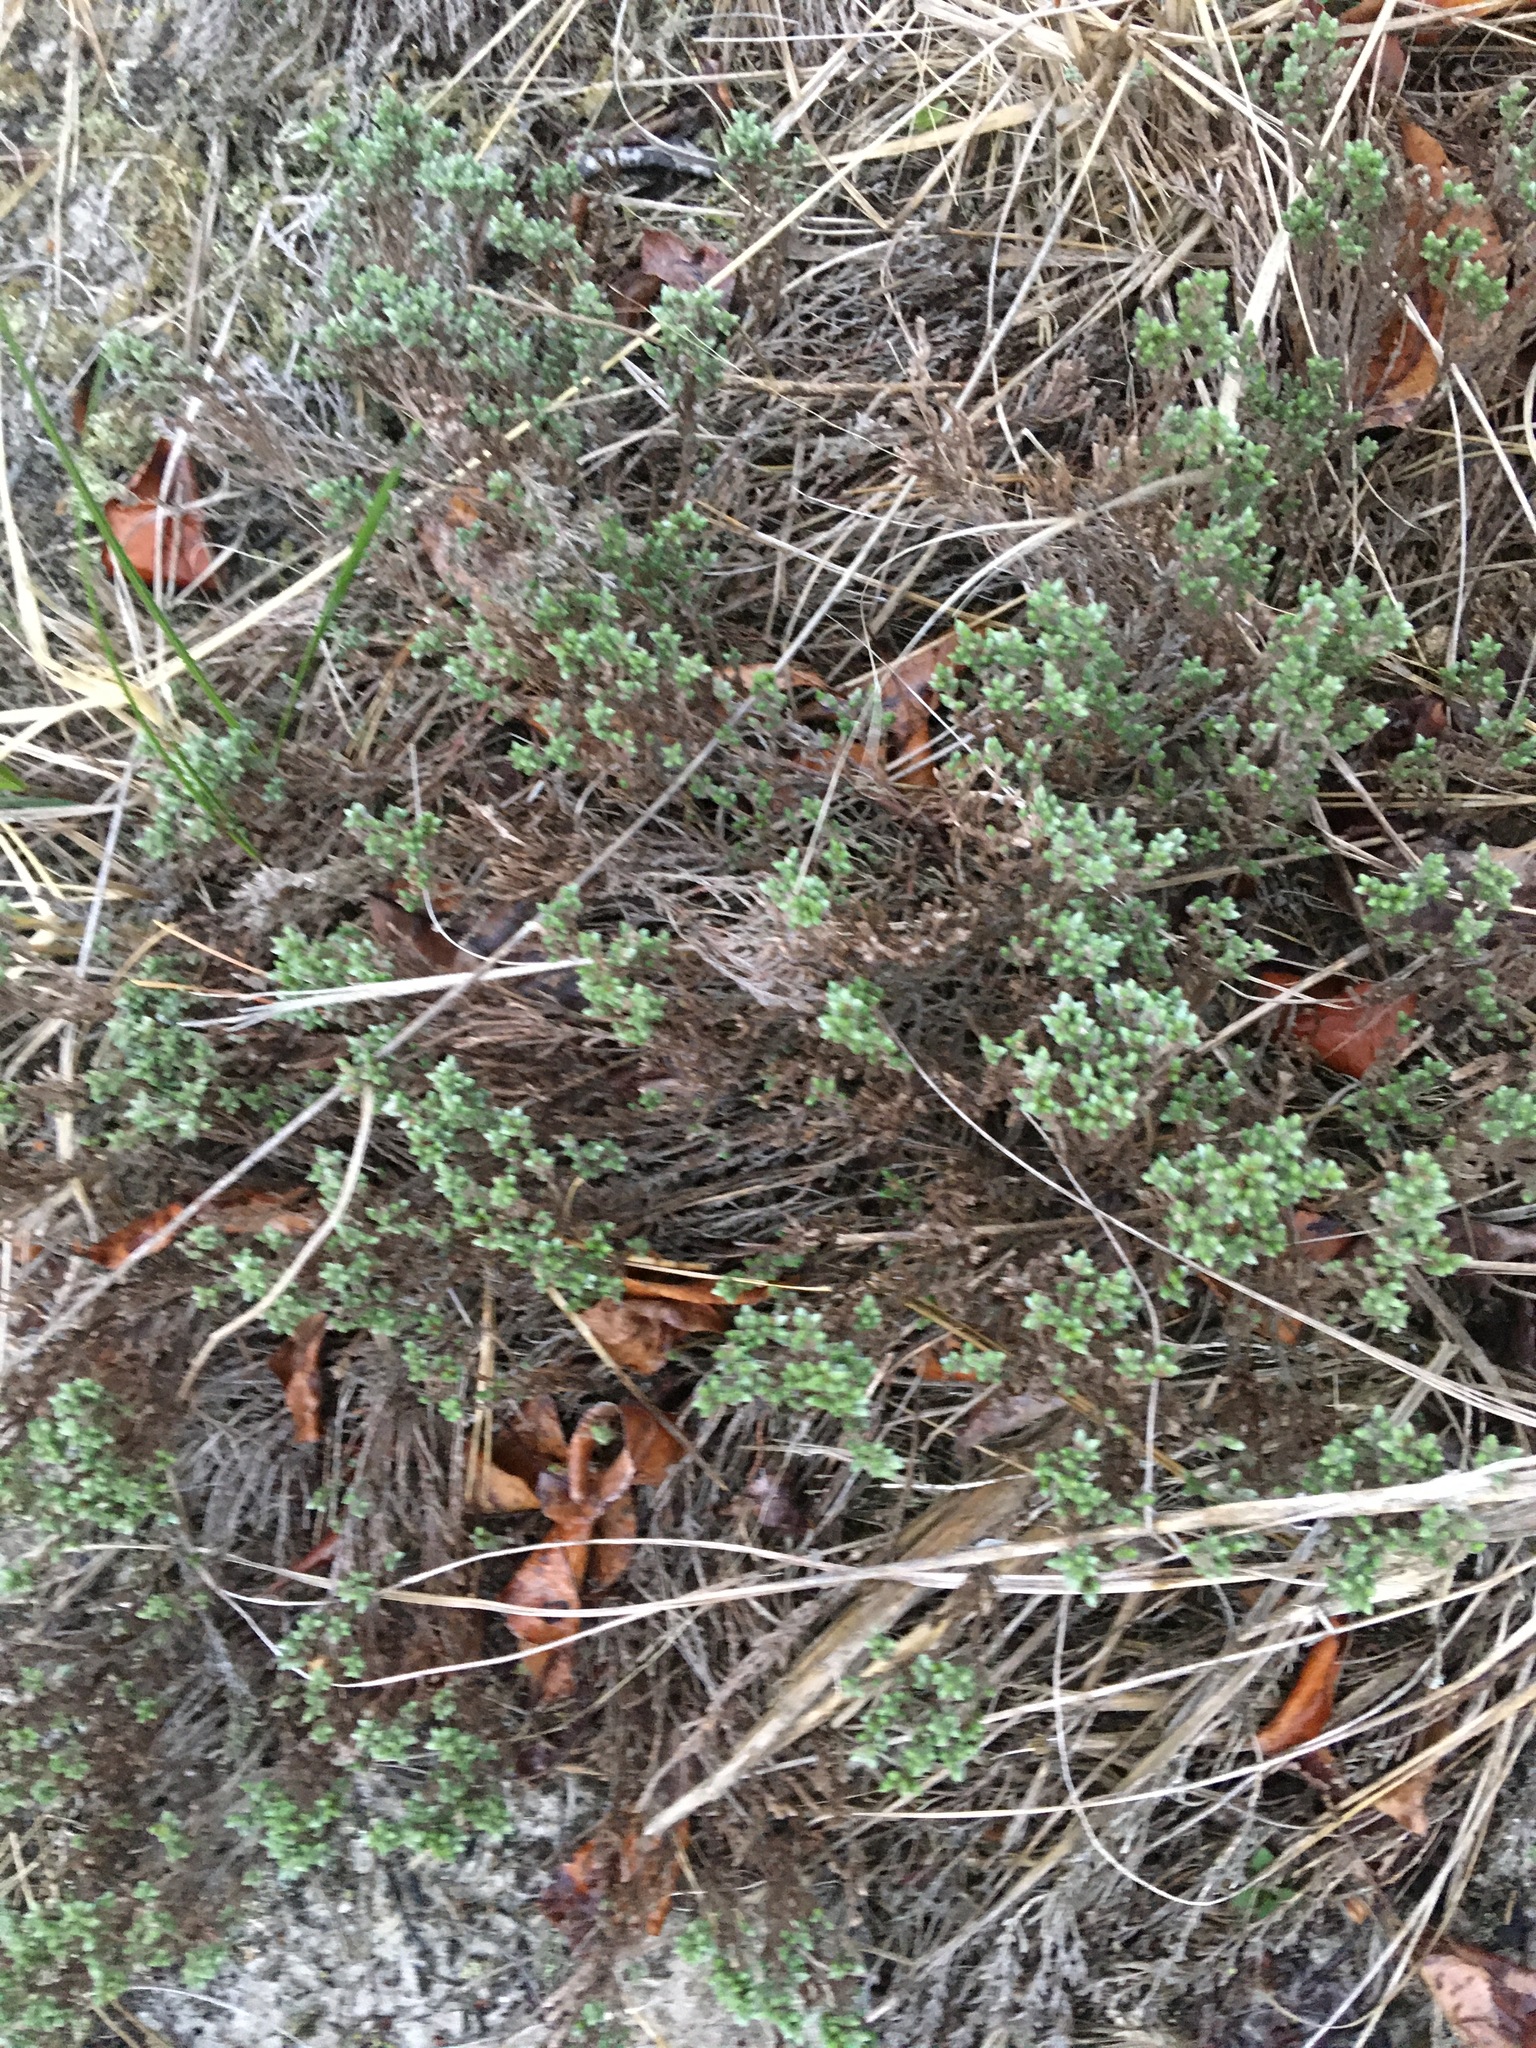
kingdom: Plantae
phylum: Tracheophyta
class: Magnoliopsida
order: Malvales
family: Cistaceae
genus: Hudsonia
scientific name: Hudsonia tomentosa
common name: Beach-heath
